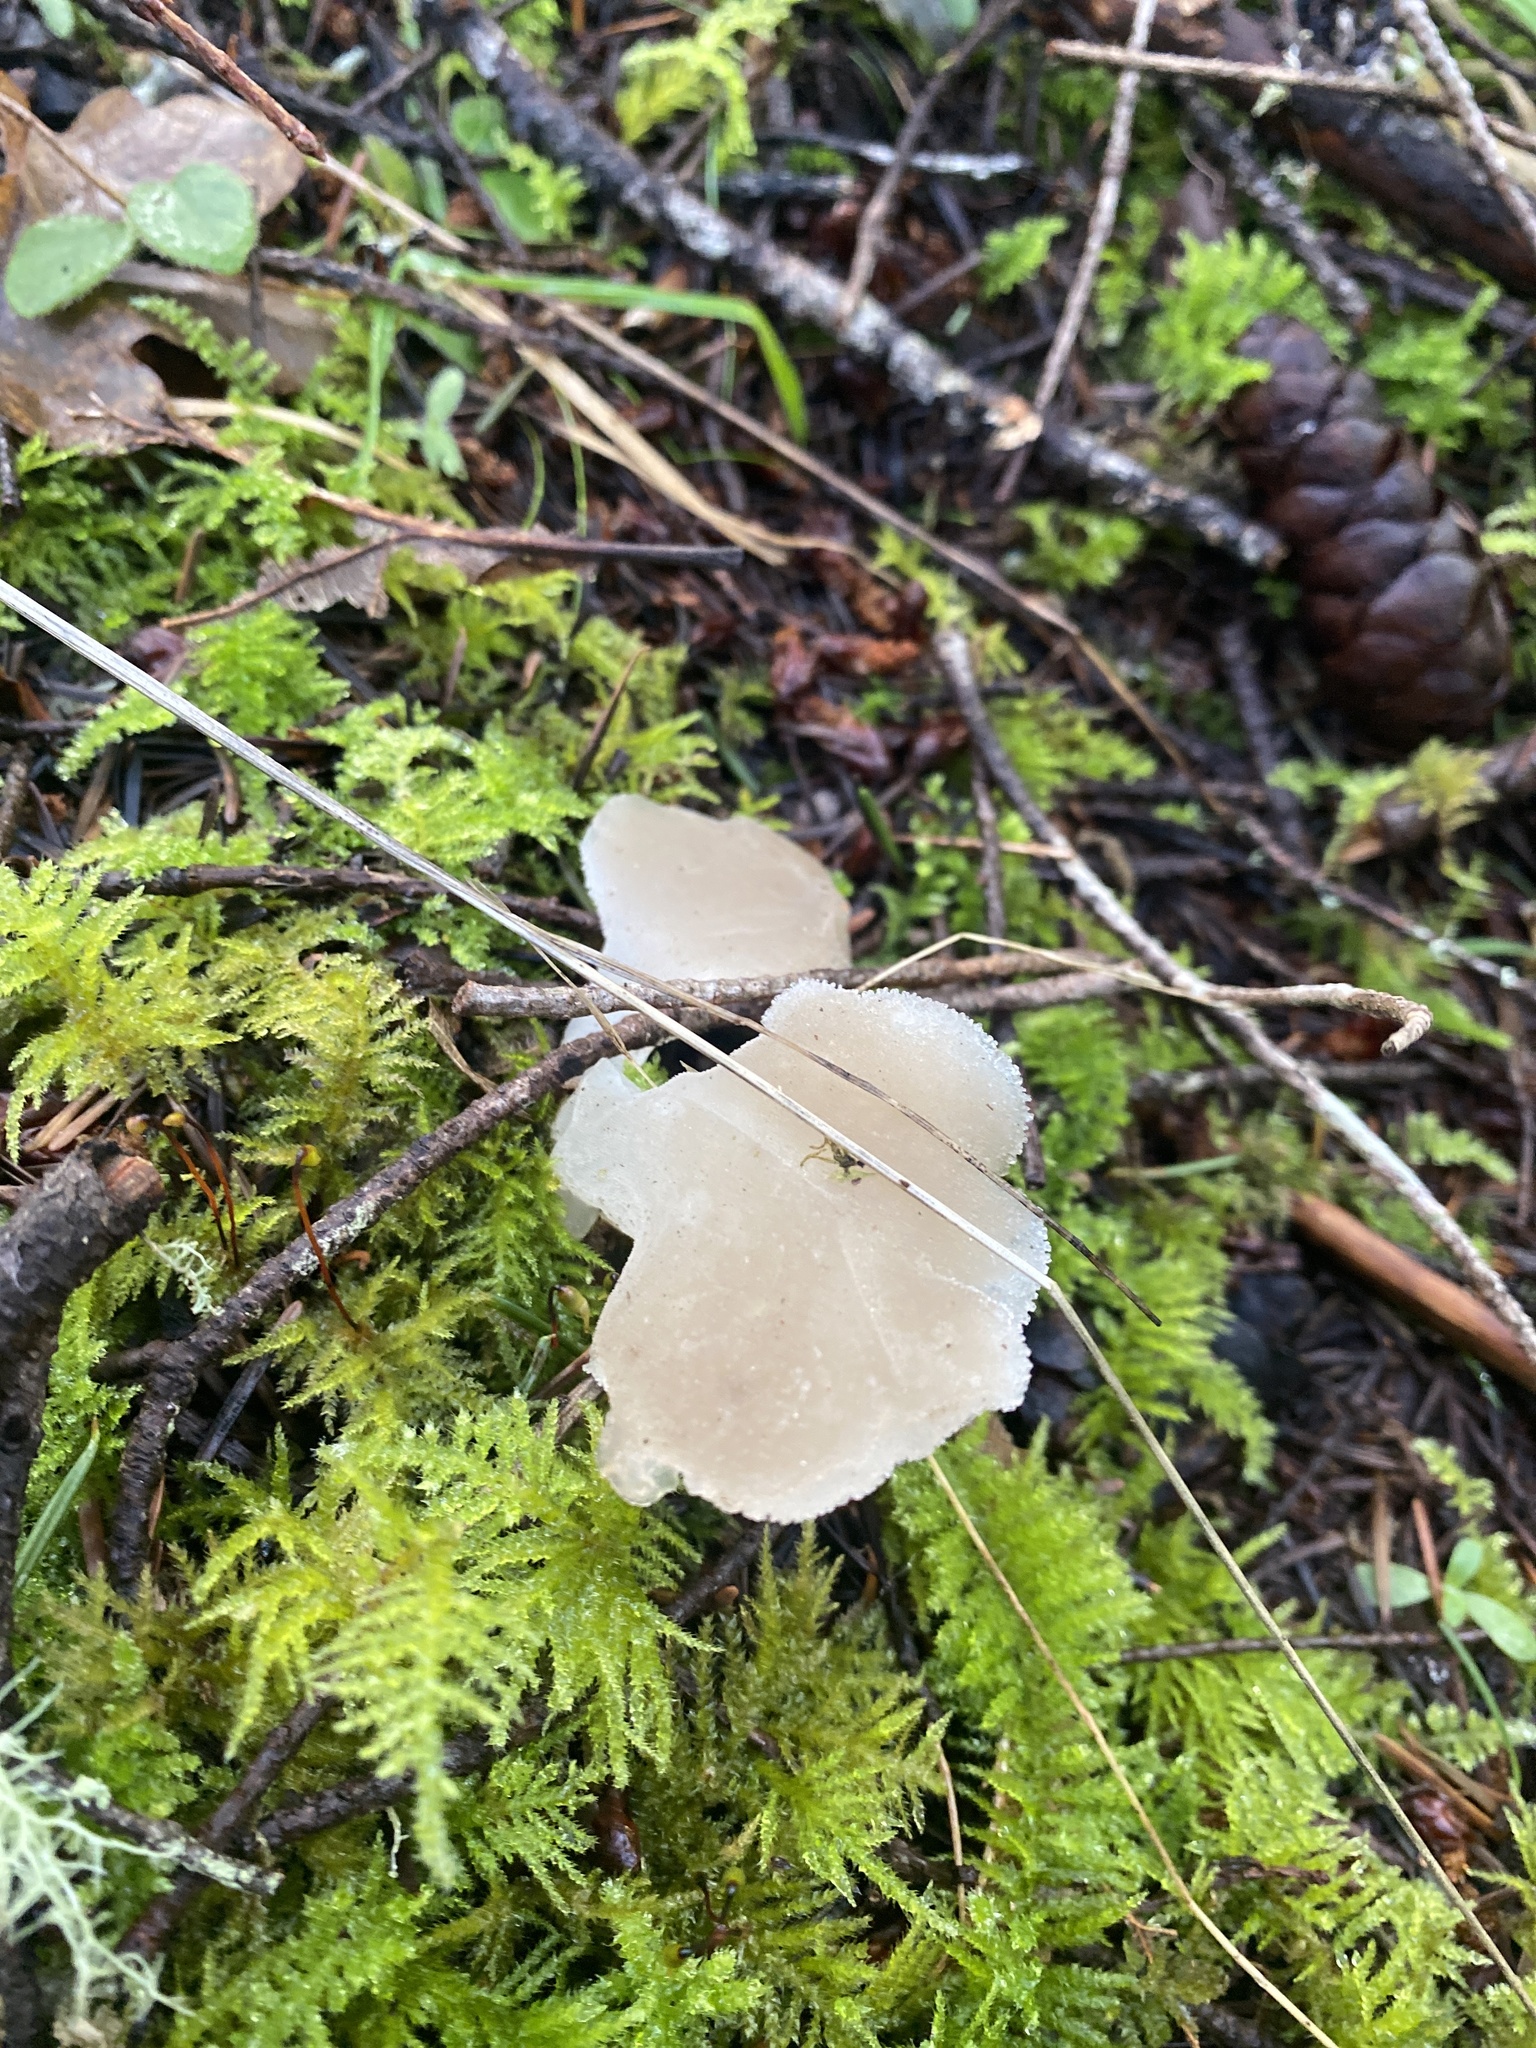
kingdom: Fungi
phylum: Basidiomycota
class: Agaricomycetes
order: Auriculariales
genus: Pseudohydnum
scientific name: Pseudohydnum gelatinosum
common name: Jelly tongue
